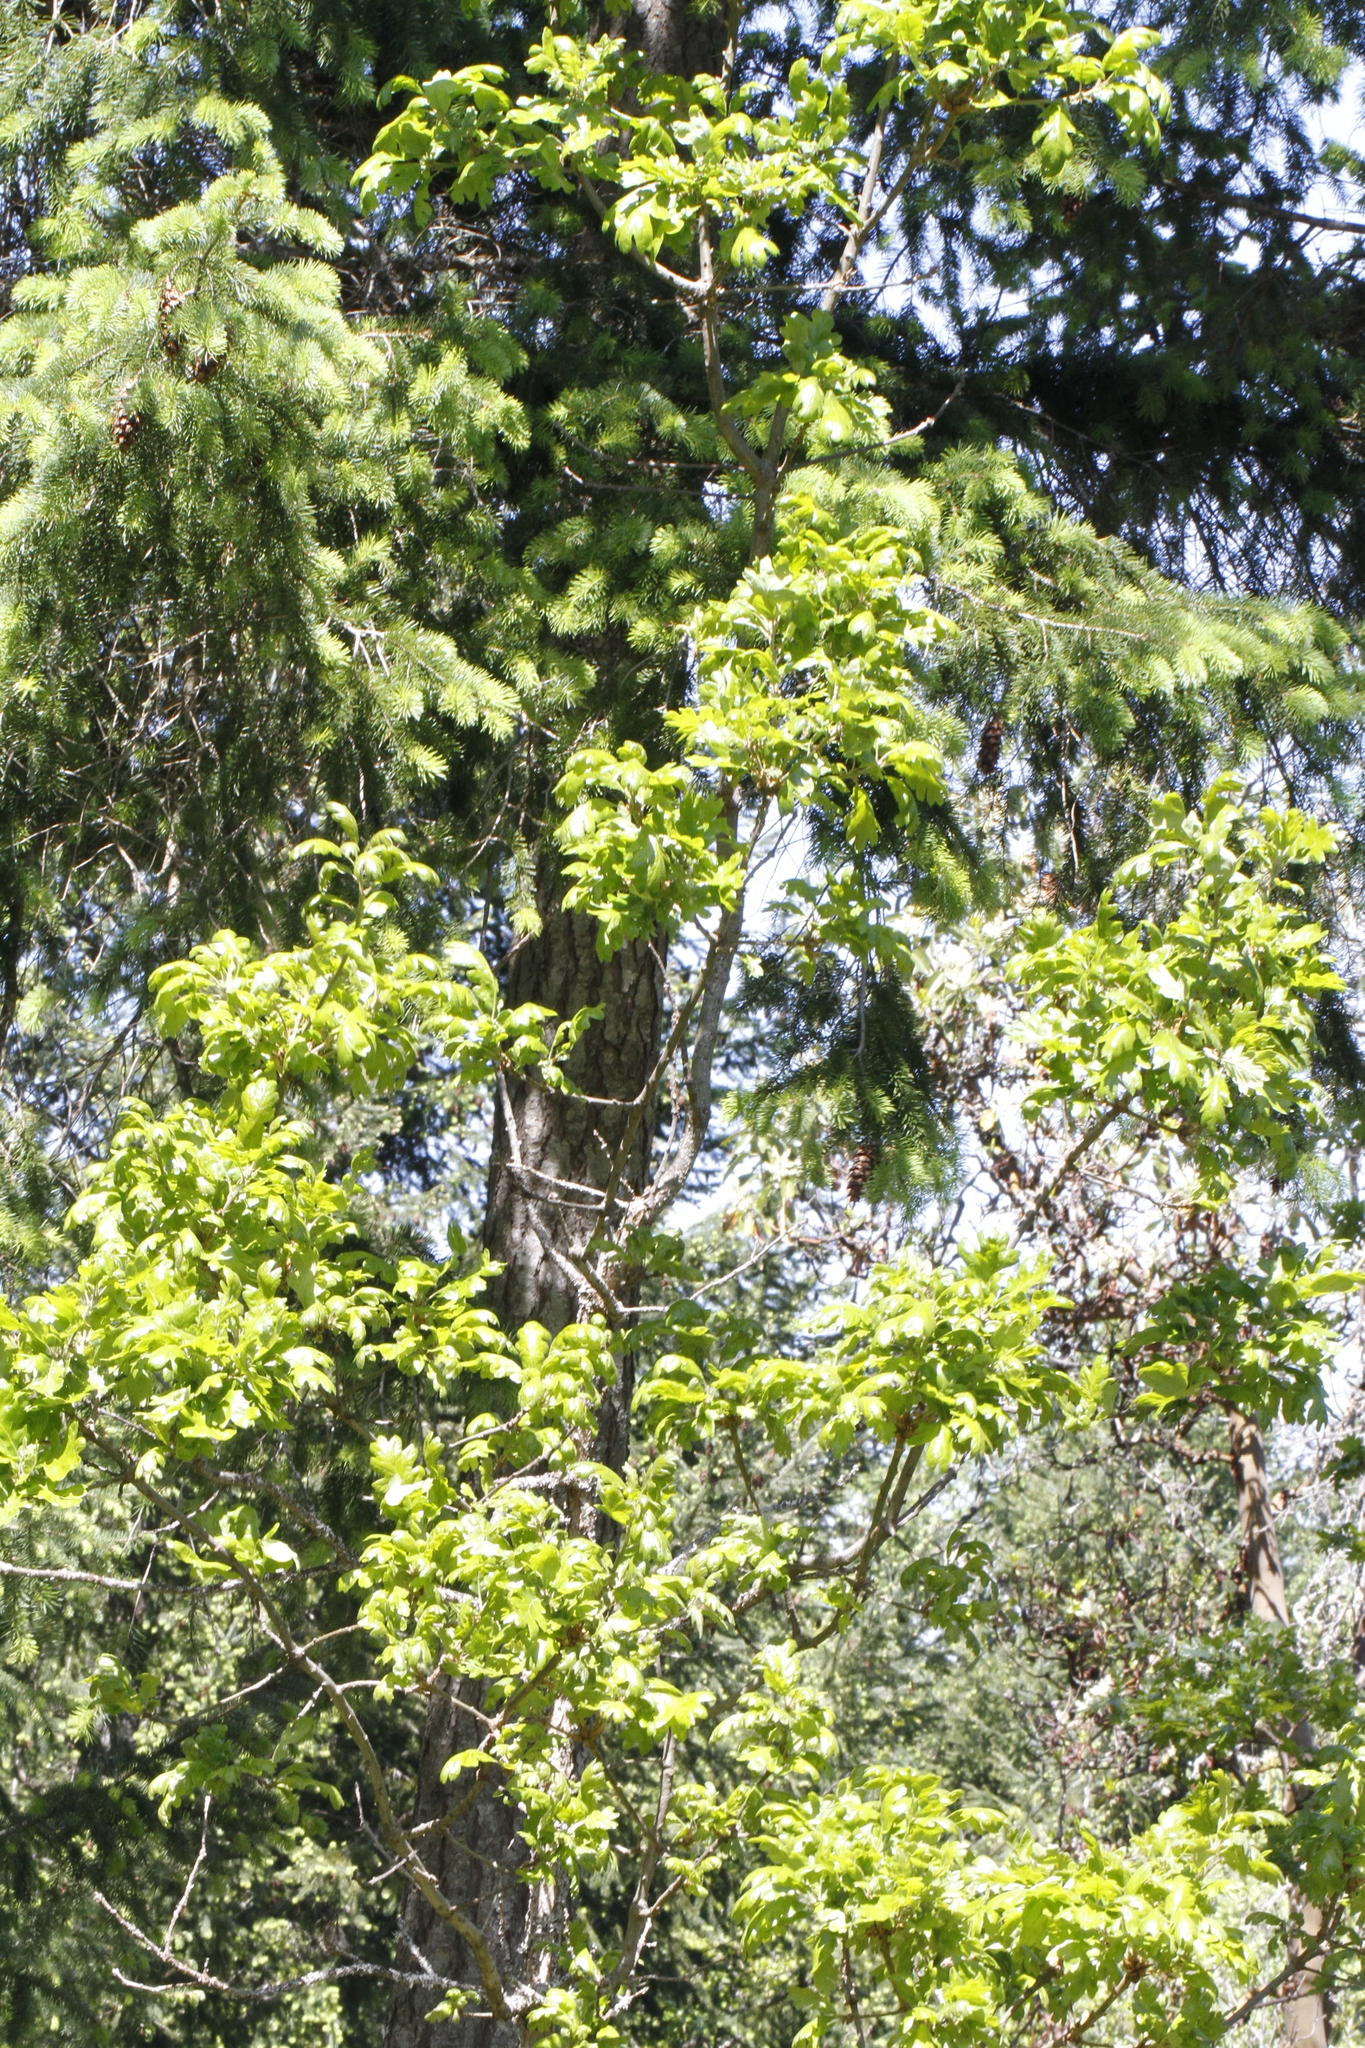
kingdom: Plantae
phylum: Tracheophyta
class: Magnoliopsida
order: Fagales
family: Fagaceae
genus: Quercus
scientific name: Quercus garryana
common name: Garry oak
